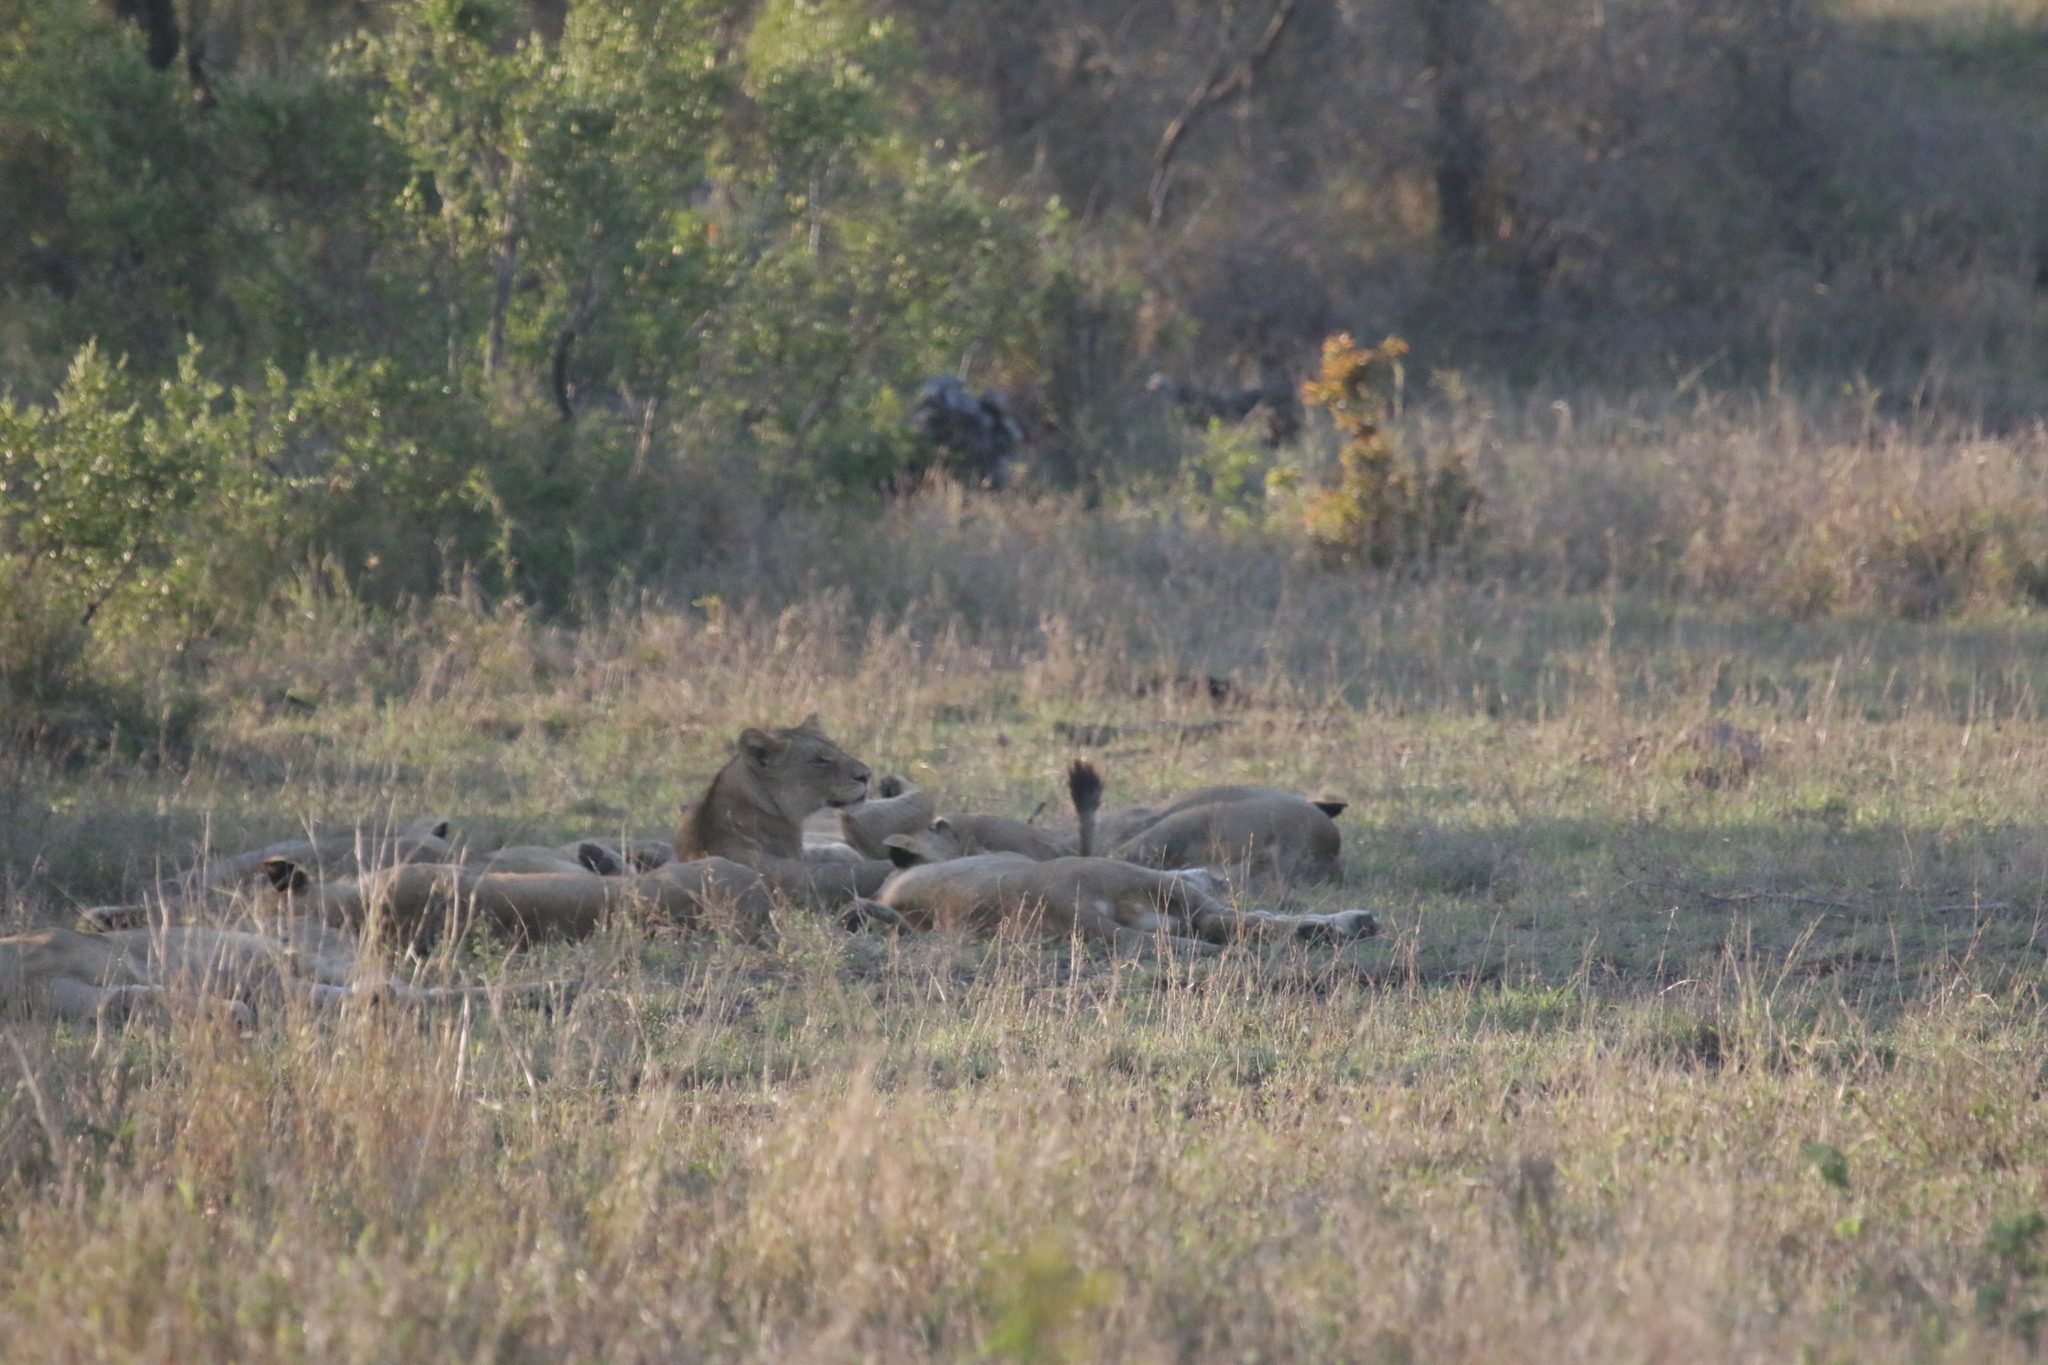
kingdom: Animalia
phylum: Chordata
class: Mammalia
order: Carnivora
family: Felidae
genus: Panthera
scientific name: Panthera leo
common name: Lion
